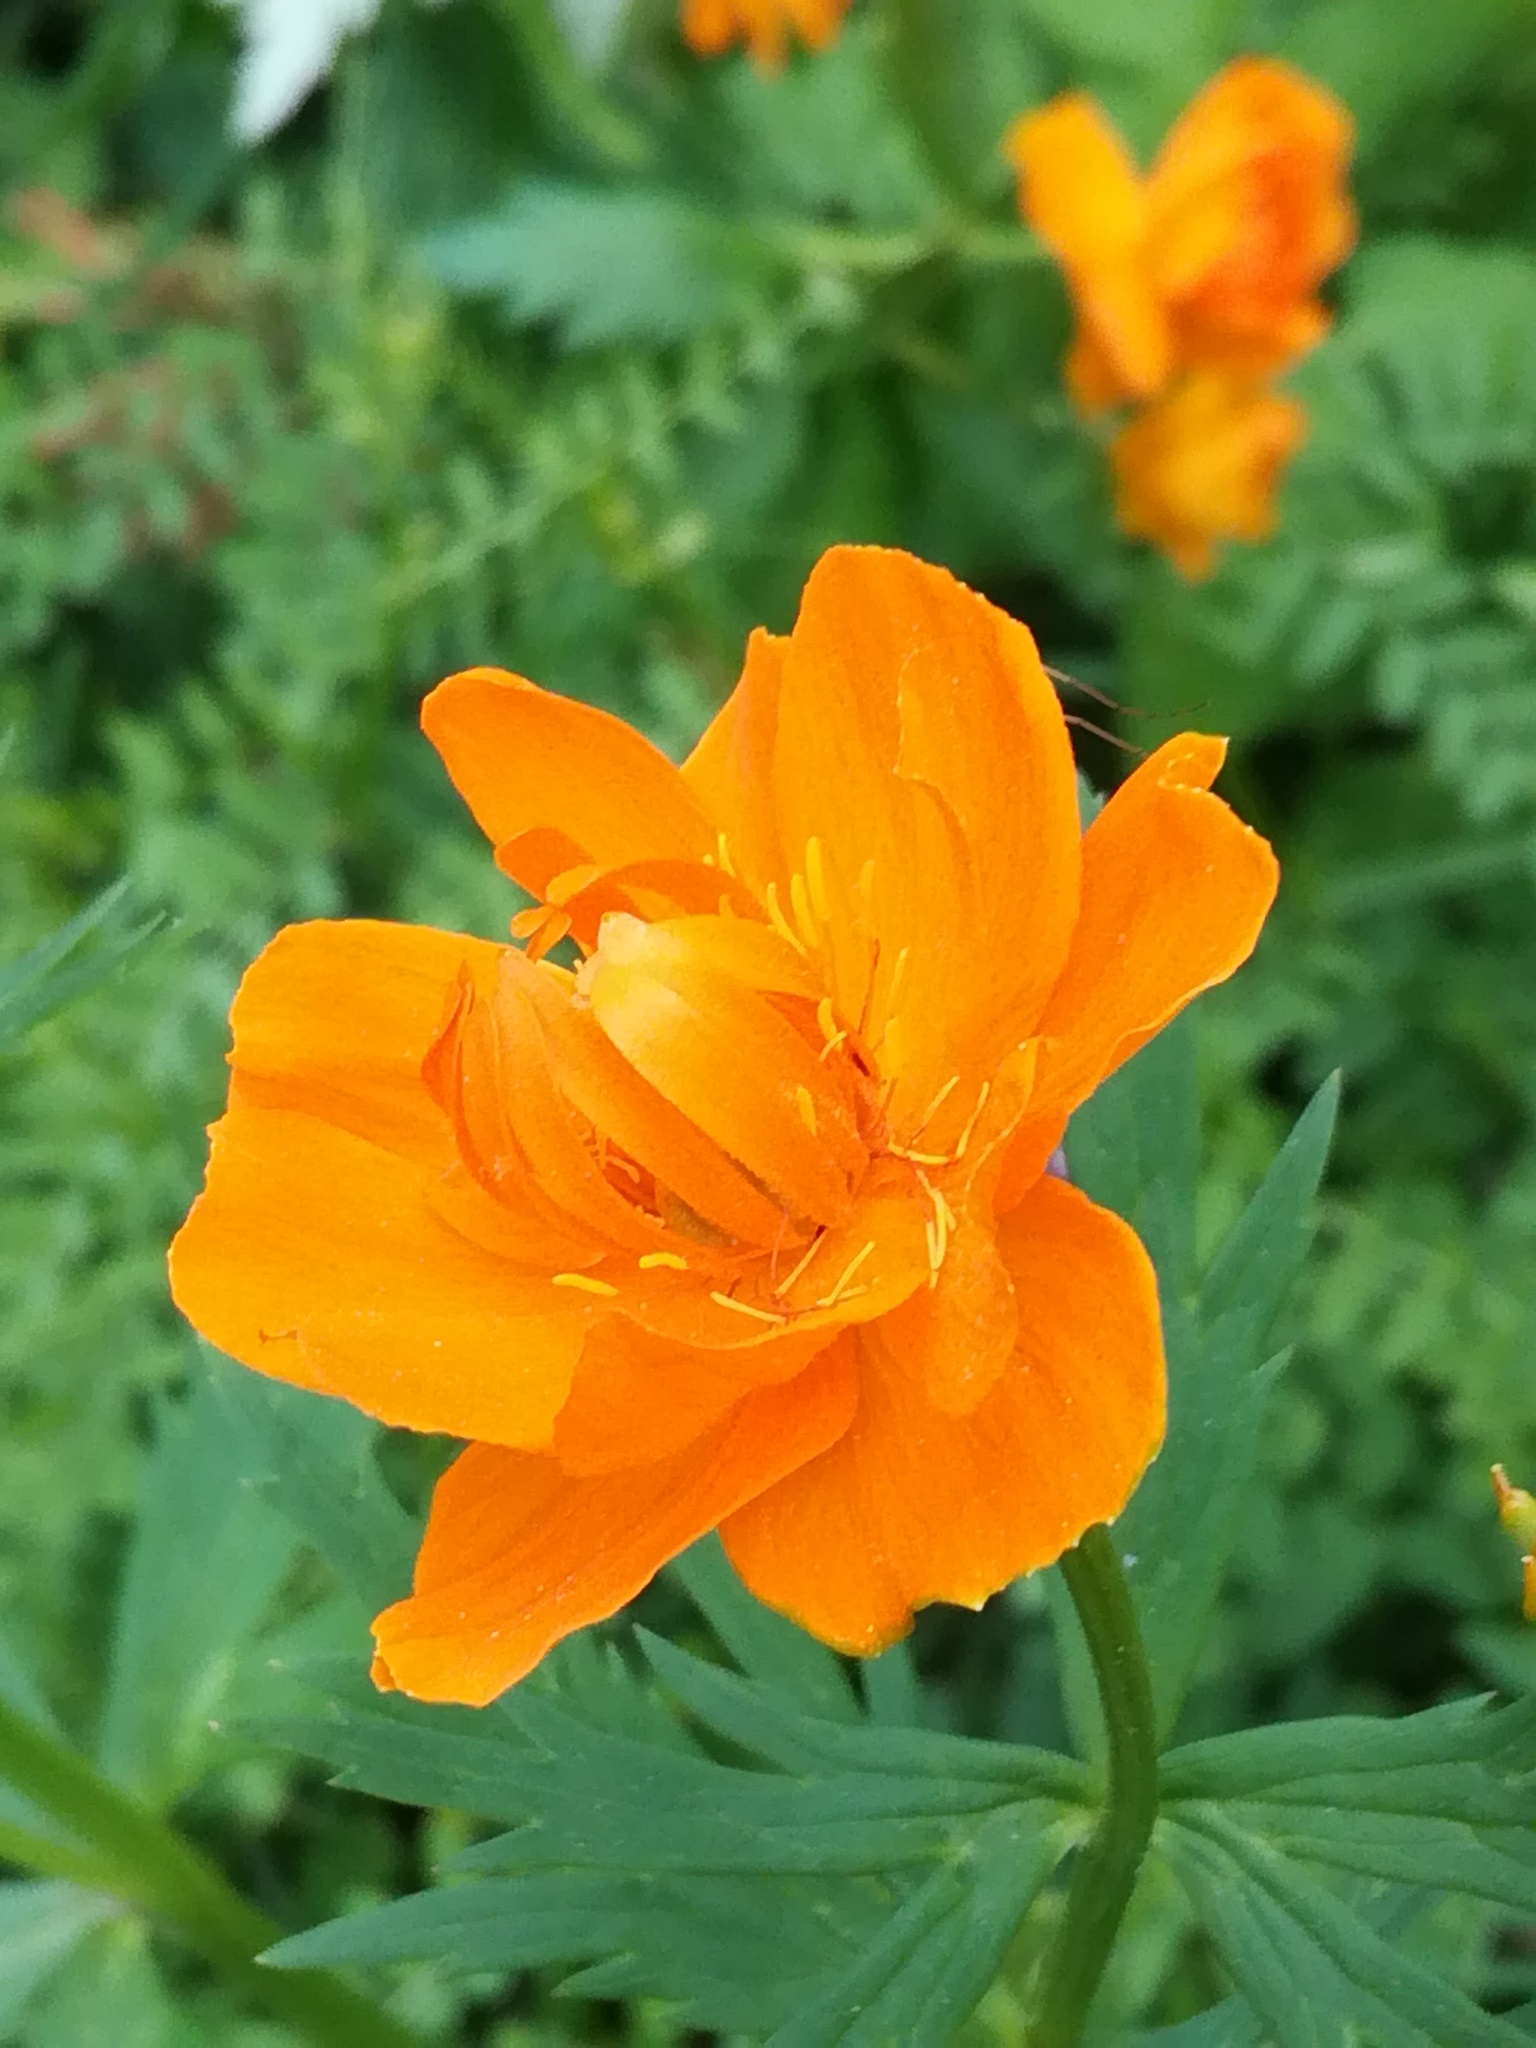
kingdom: Plantae
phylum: Tracheophyta
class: Magnoliopsida
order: Ranunculales
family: Ranunculaceae
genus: Trollius
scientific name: Trollius asiaticus
